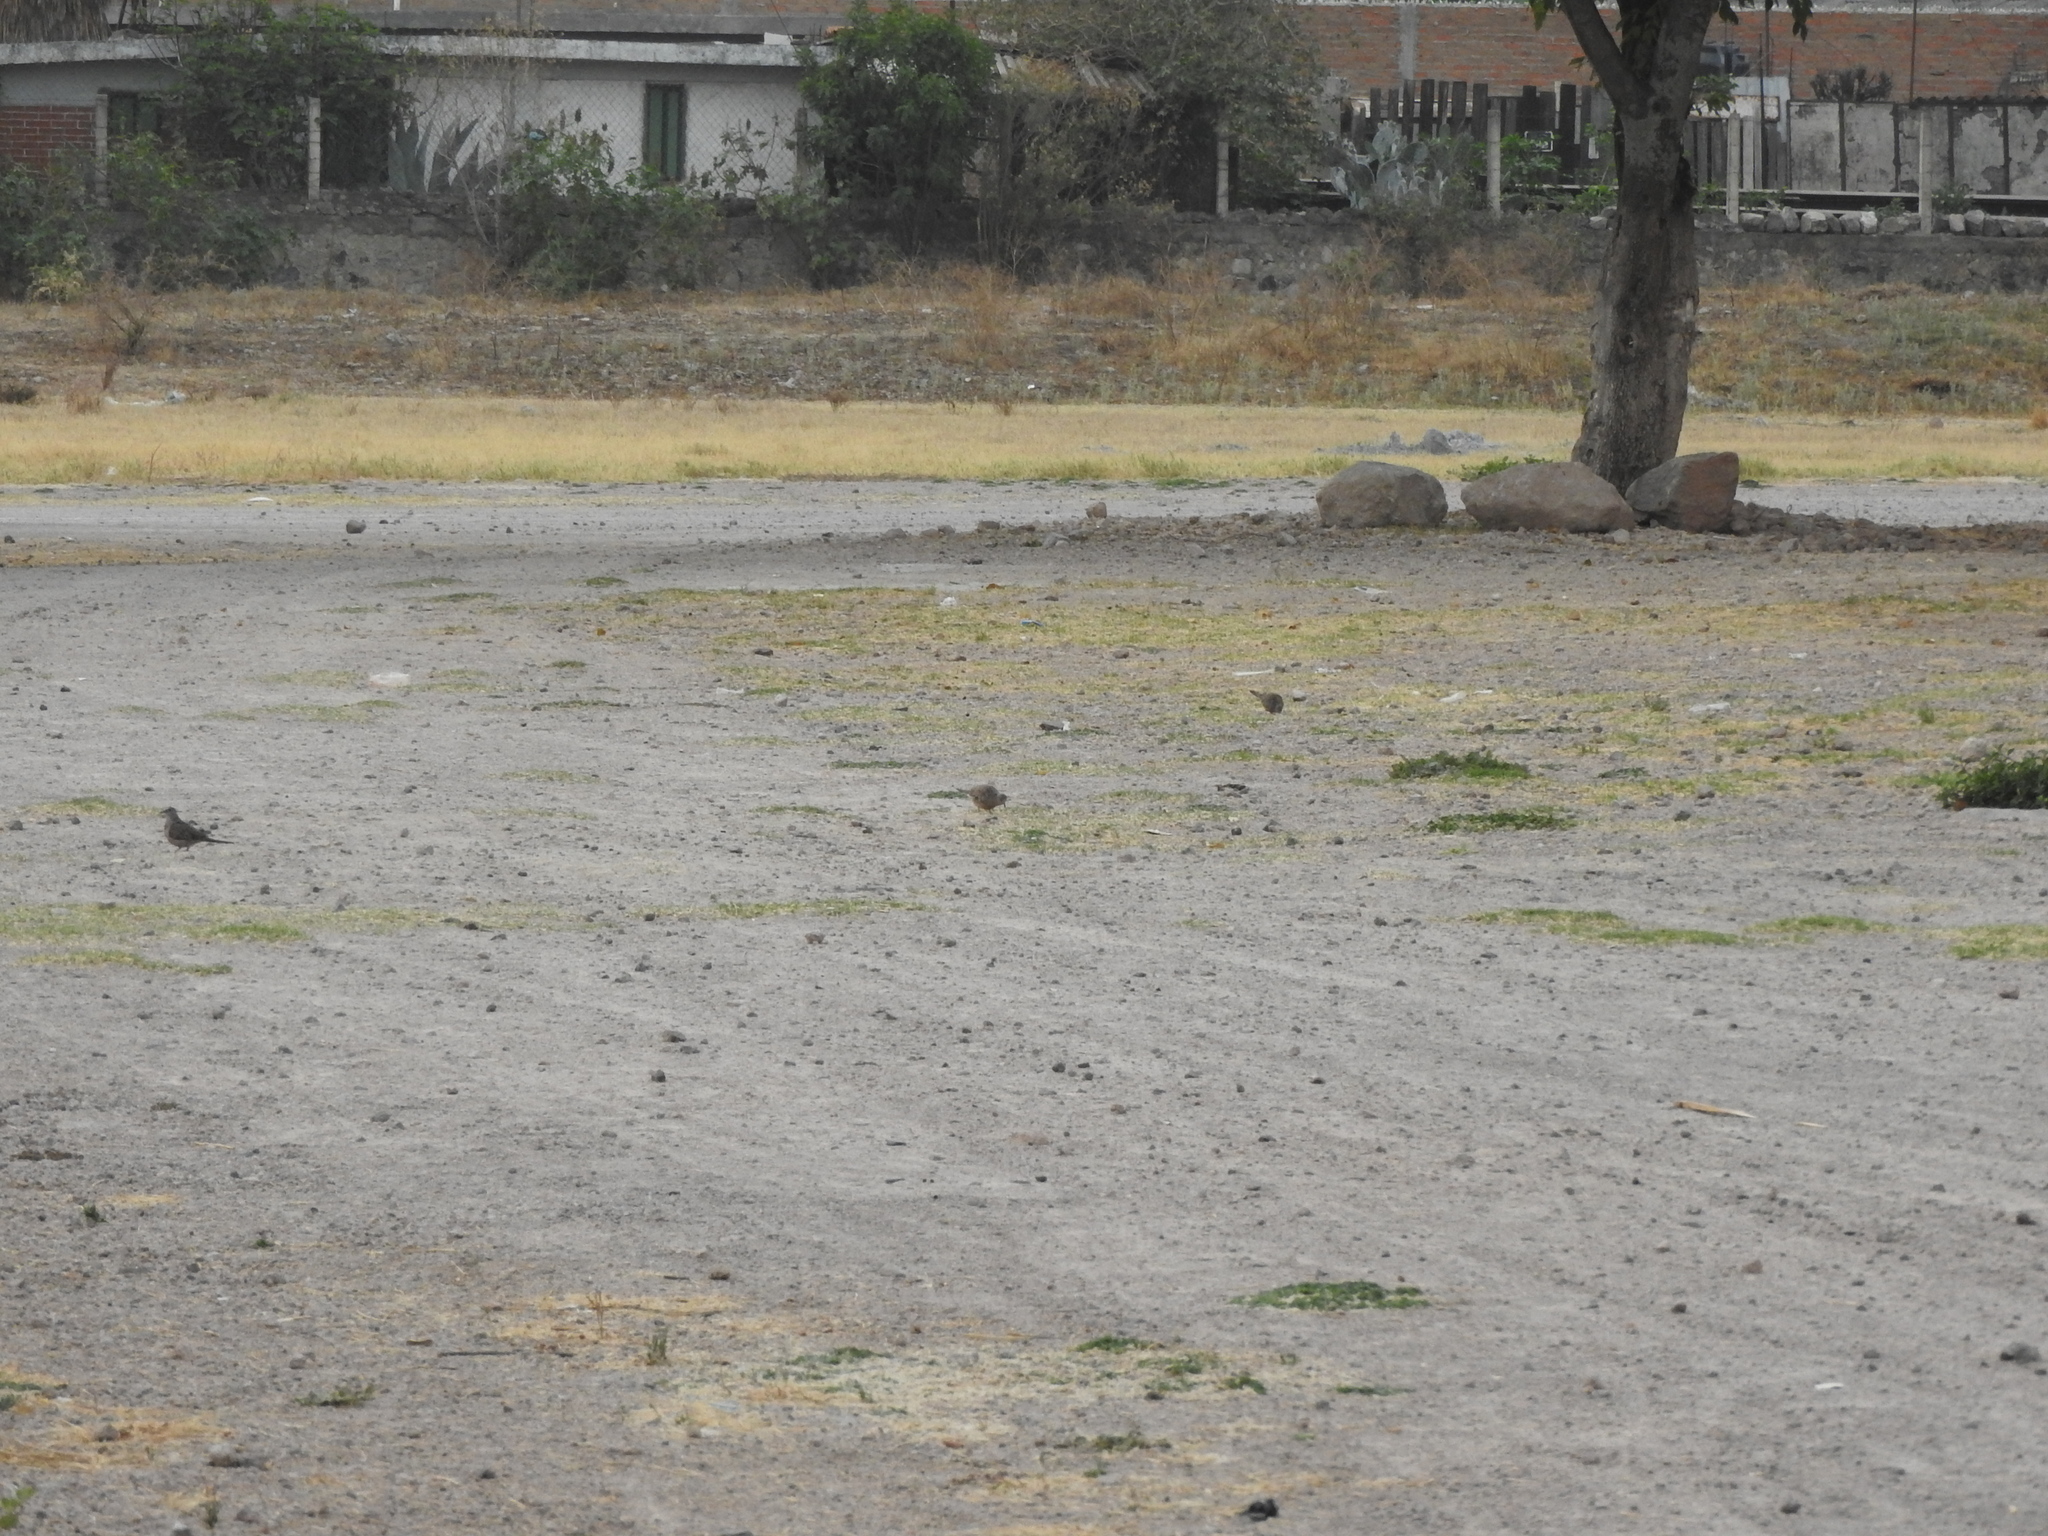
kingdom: Animalia
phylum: Chordata
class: Aves
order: Columbiformes
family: Columbidae
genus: Columbina
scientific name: Columbina inca
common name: Inca dove
